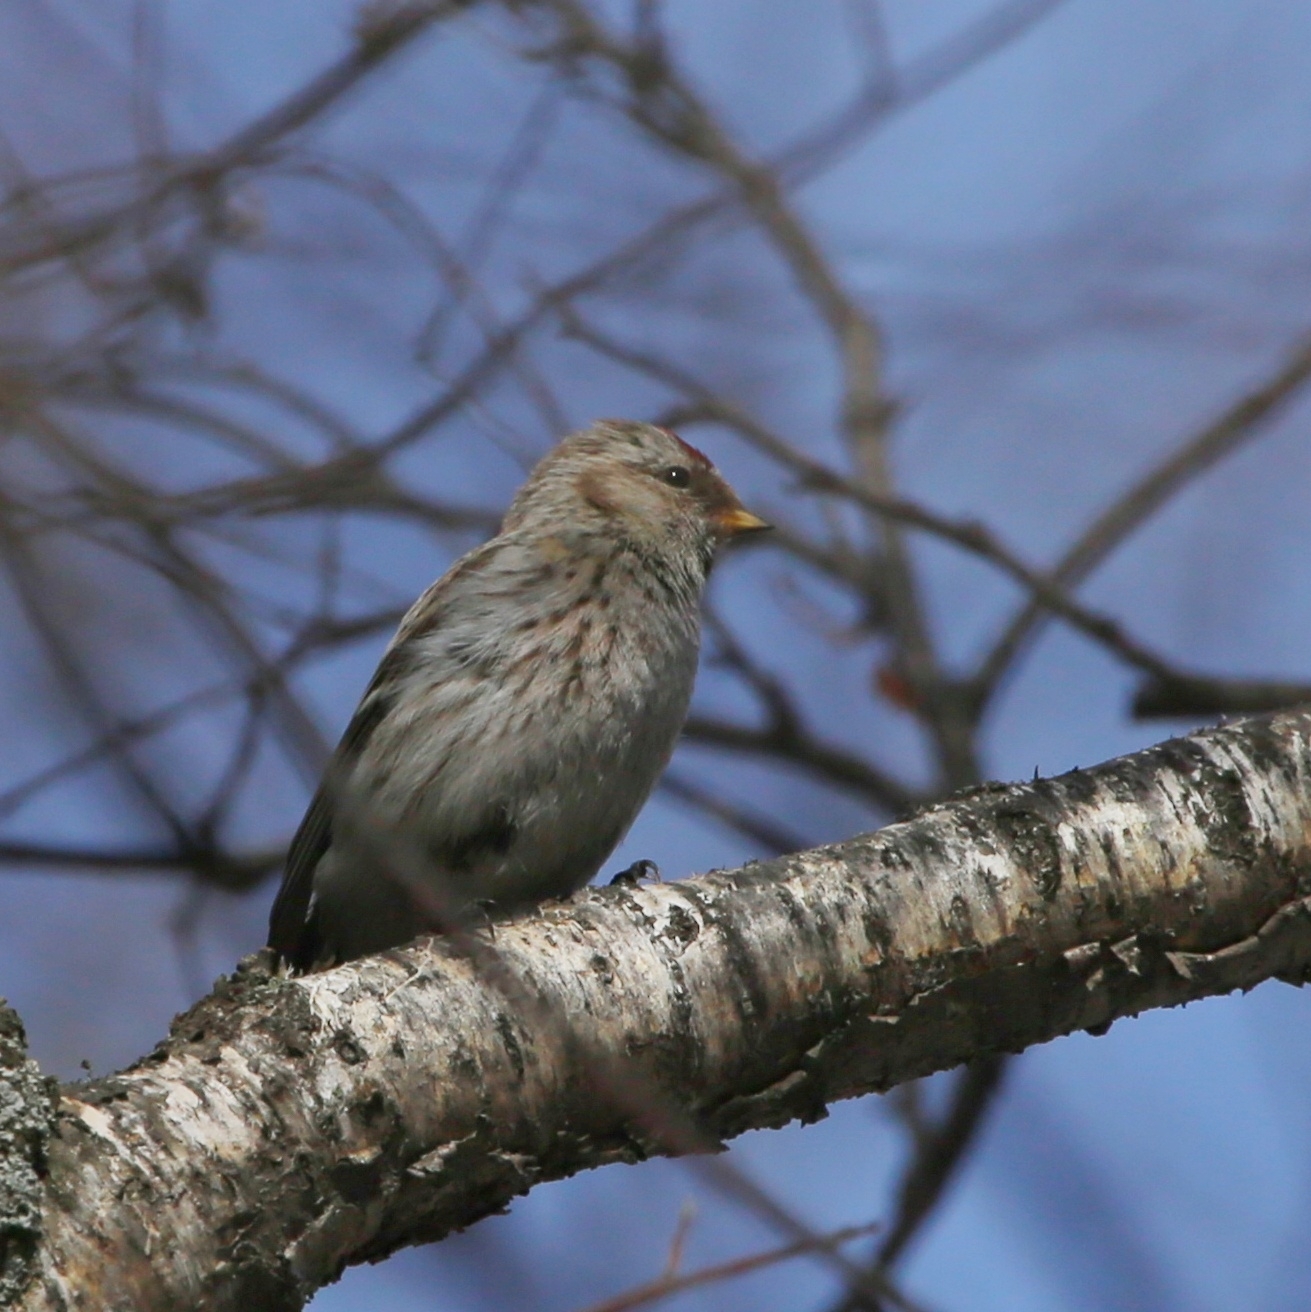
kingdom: Animalia
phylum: Chordata
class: Aves
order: Passeriformes
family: Fringillidae
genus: Acanthis
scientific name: Acanthis flammea
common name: Common redpoll
